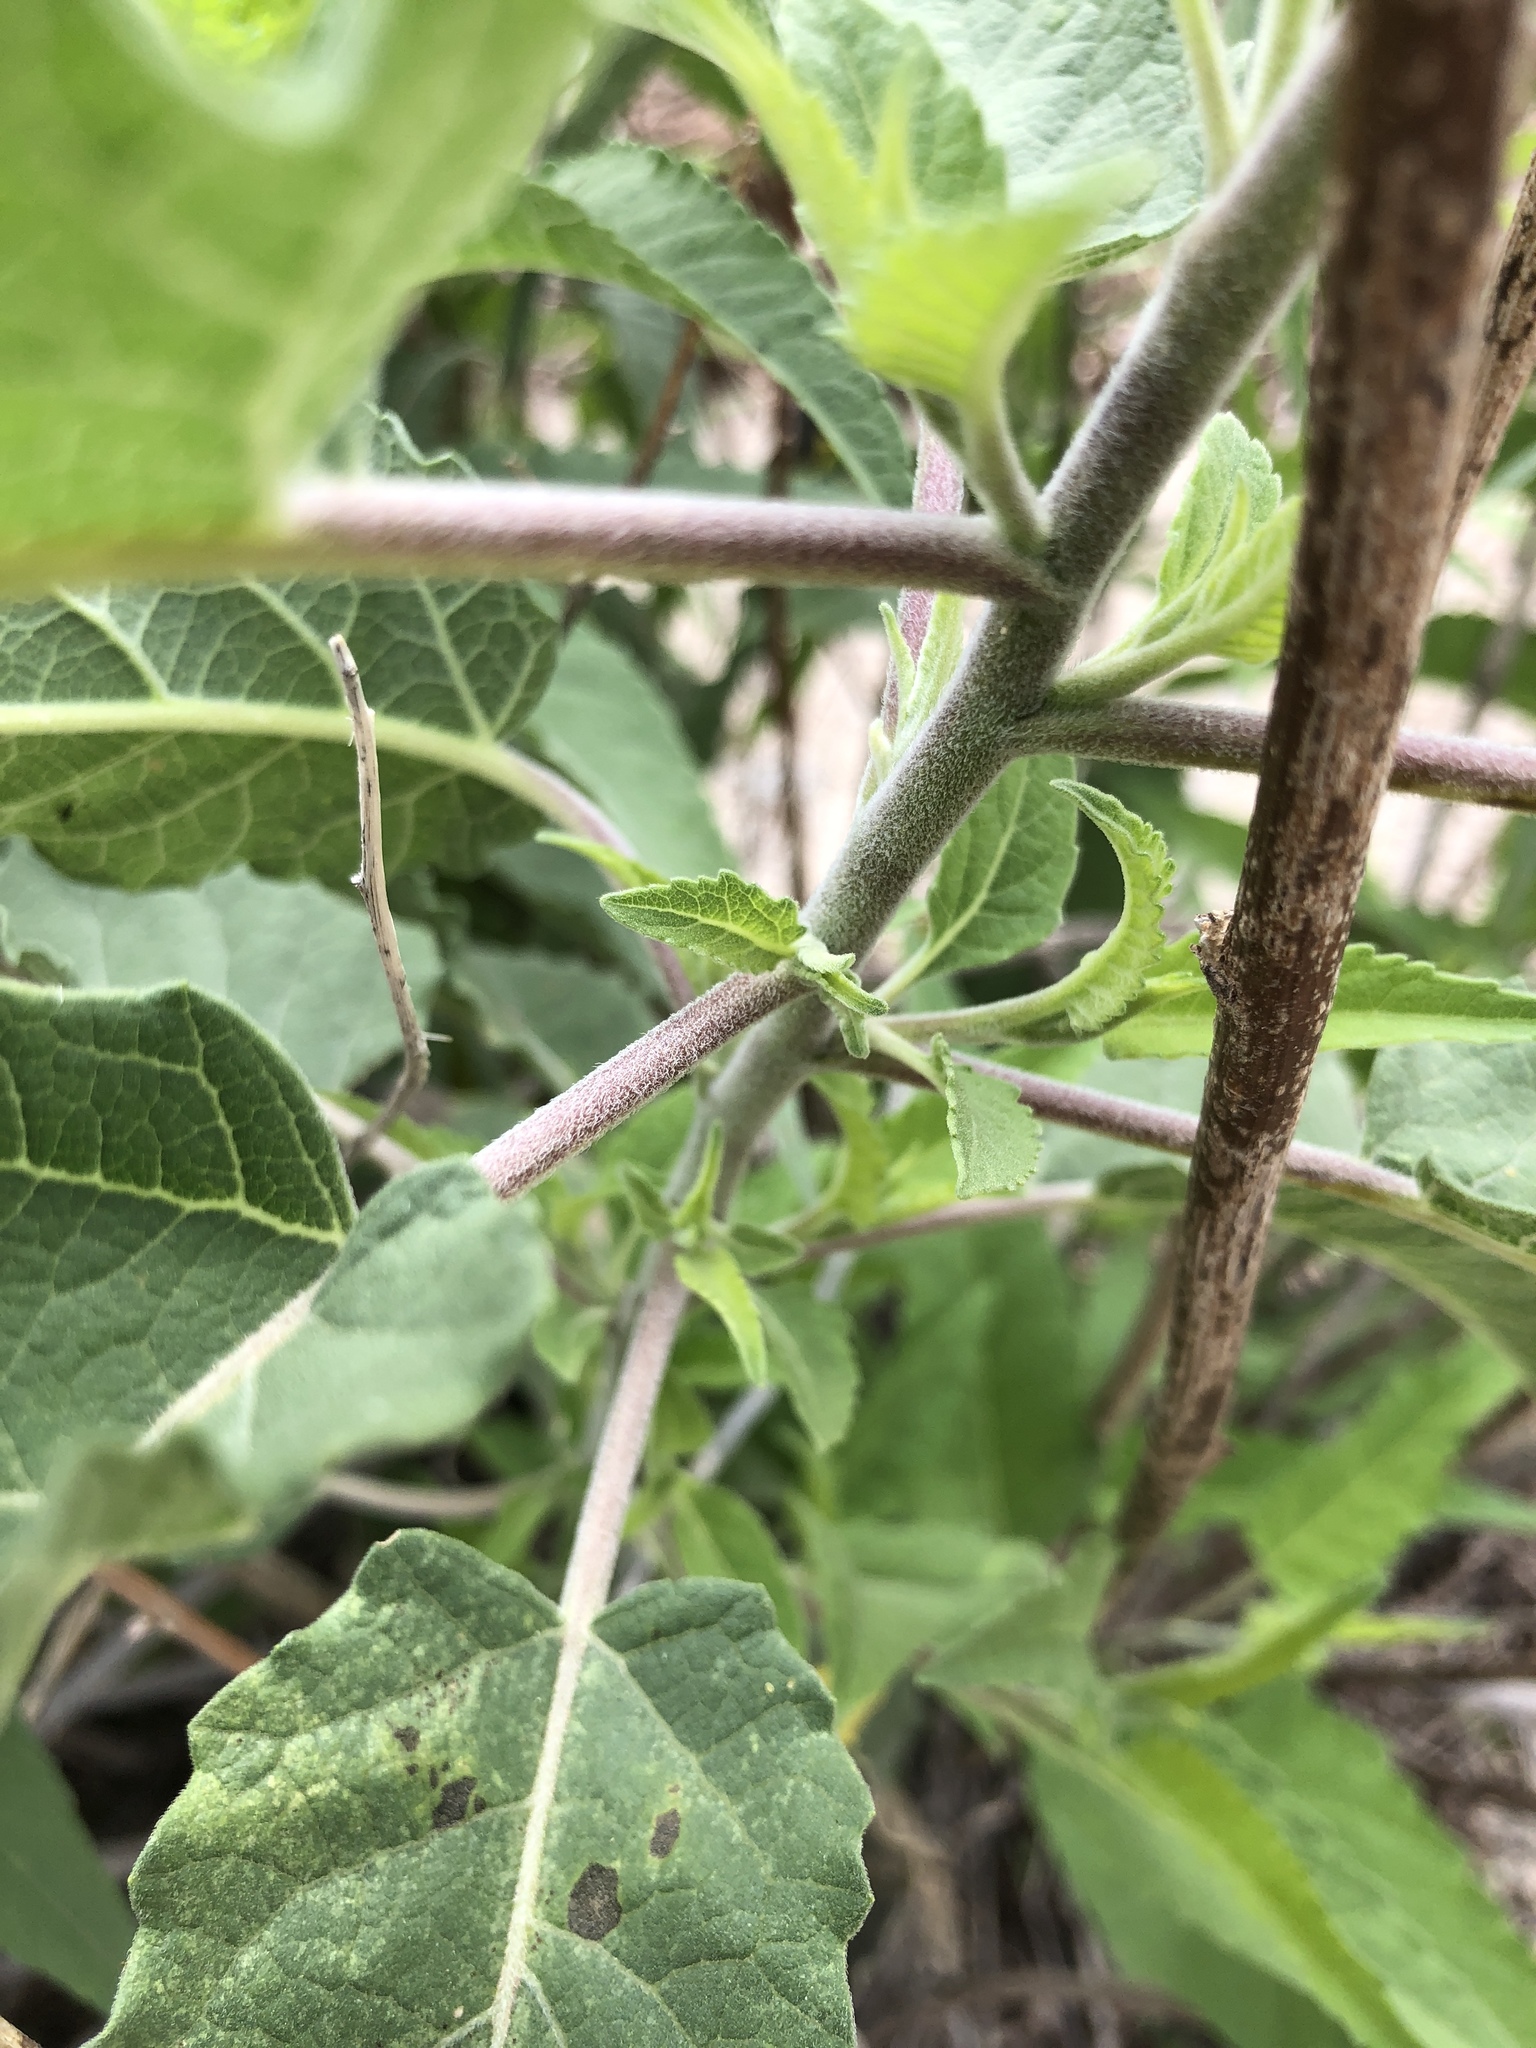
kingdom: Plantae
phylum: Tracheophyta
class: Magnoliopsida
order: Asterales
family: Asteraceae
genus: Ambrosia
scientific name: Ambrosia ambrosioides
